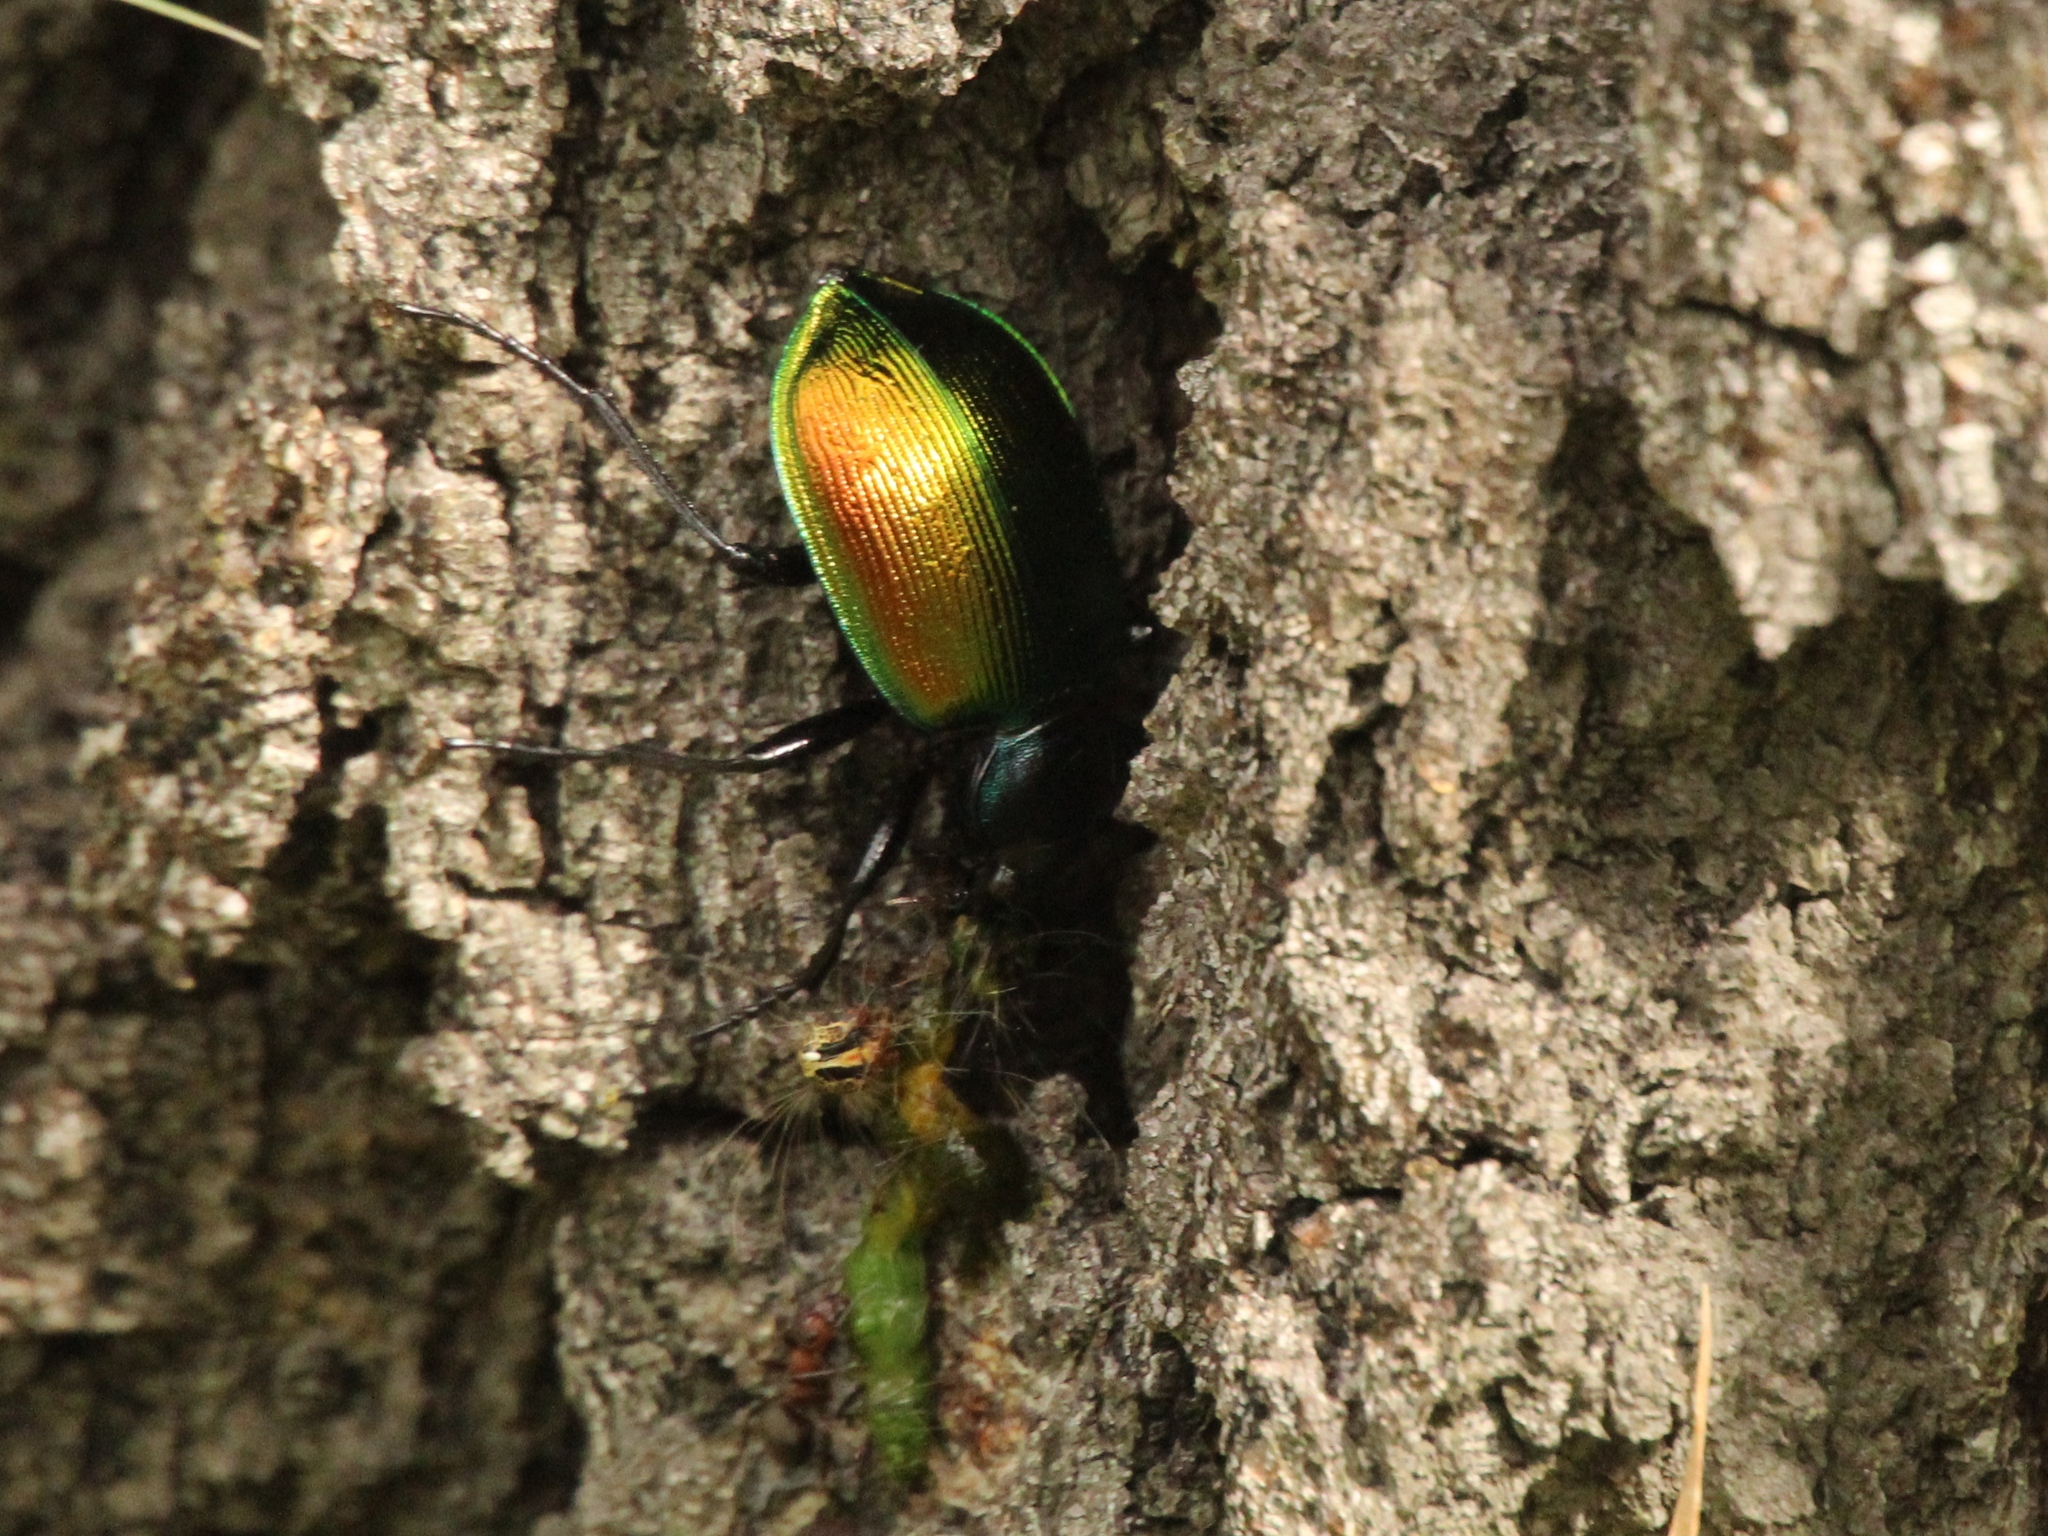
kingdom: Animalia
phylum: Arthropoda
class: Insecta
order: Coleoptera
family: Carabidae
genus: Calosoma
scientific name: Calosoma sycophanta
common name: Forest caterpillar hunter
